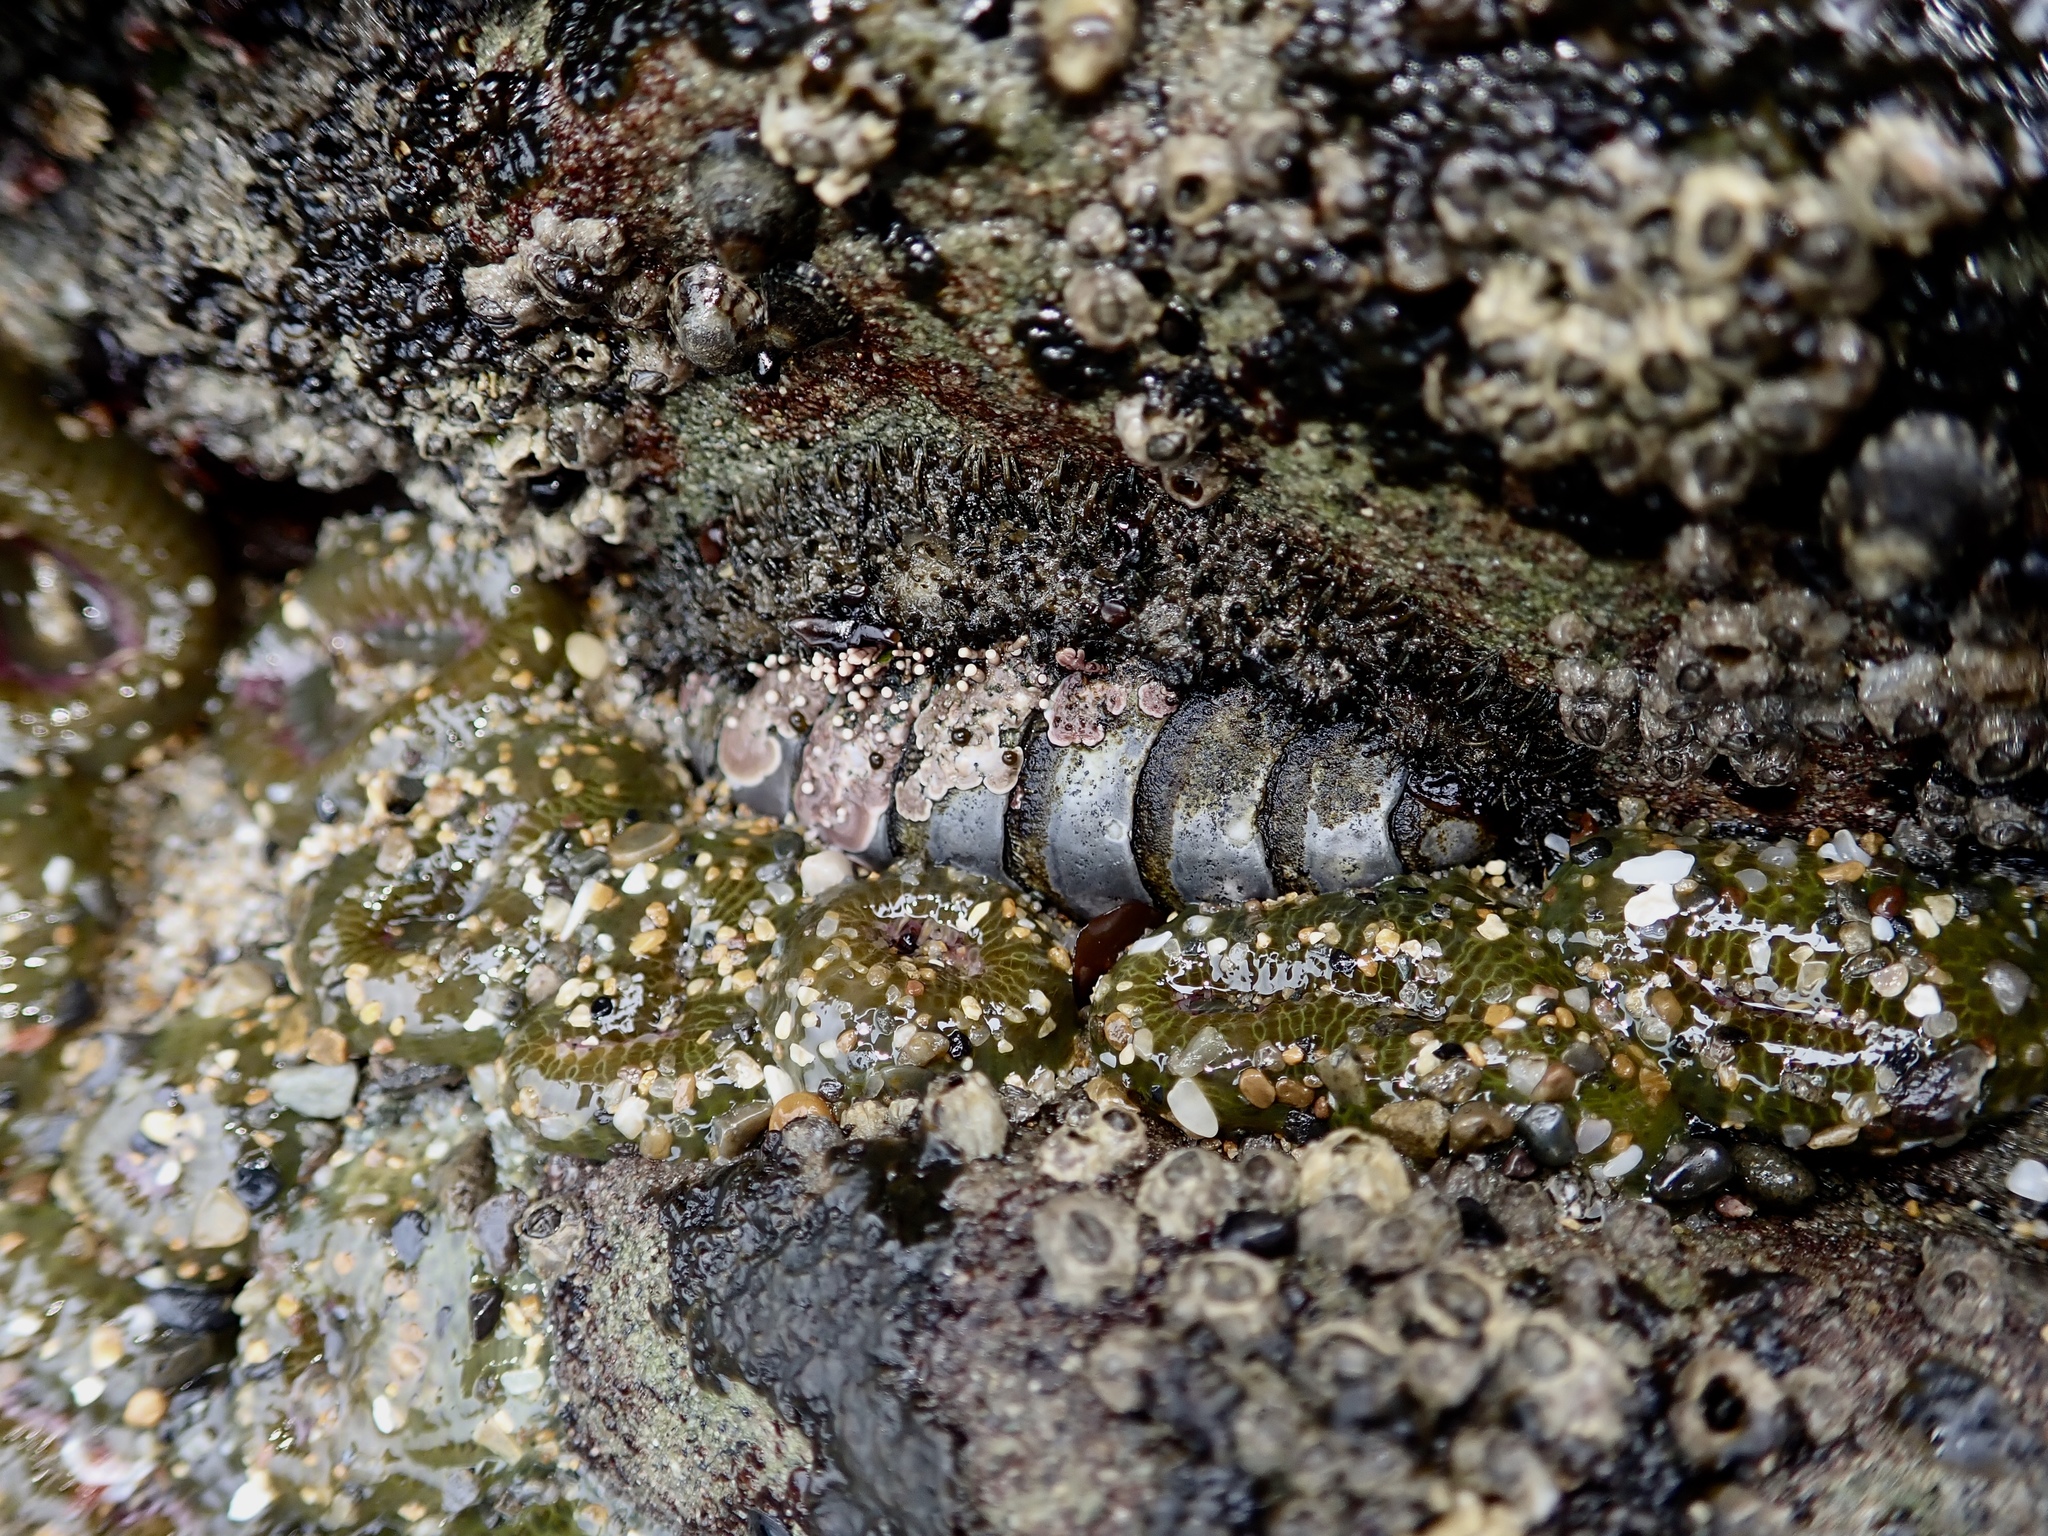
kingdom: Animalia
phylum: Mollusca
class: Polyplacophora
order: Chitonida
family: Mopaliidae
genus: Mopalia
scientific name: Mopalia muscosa
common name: Mossy chiton
